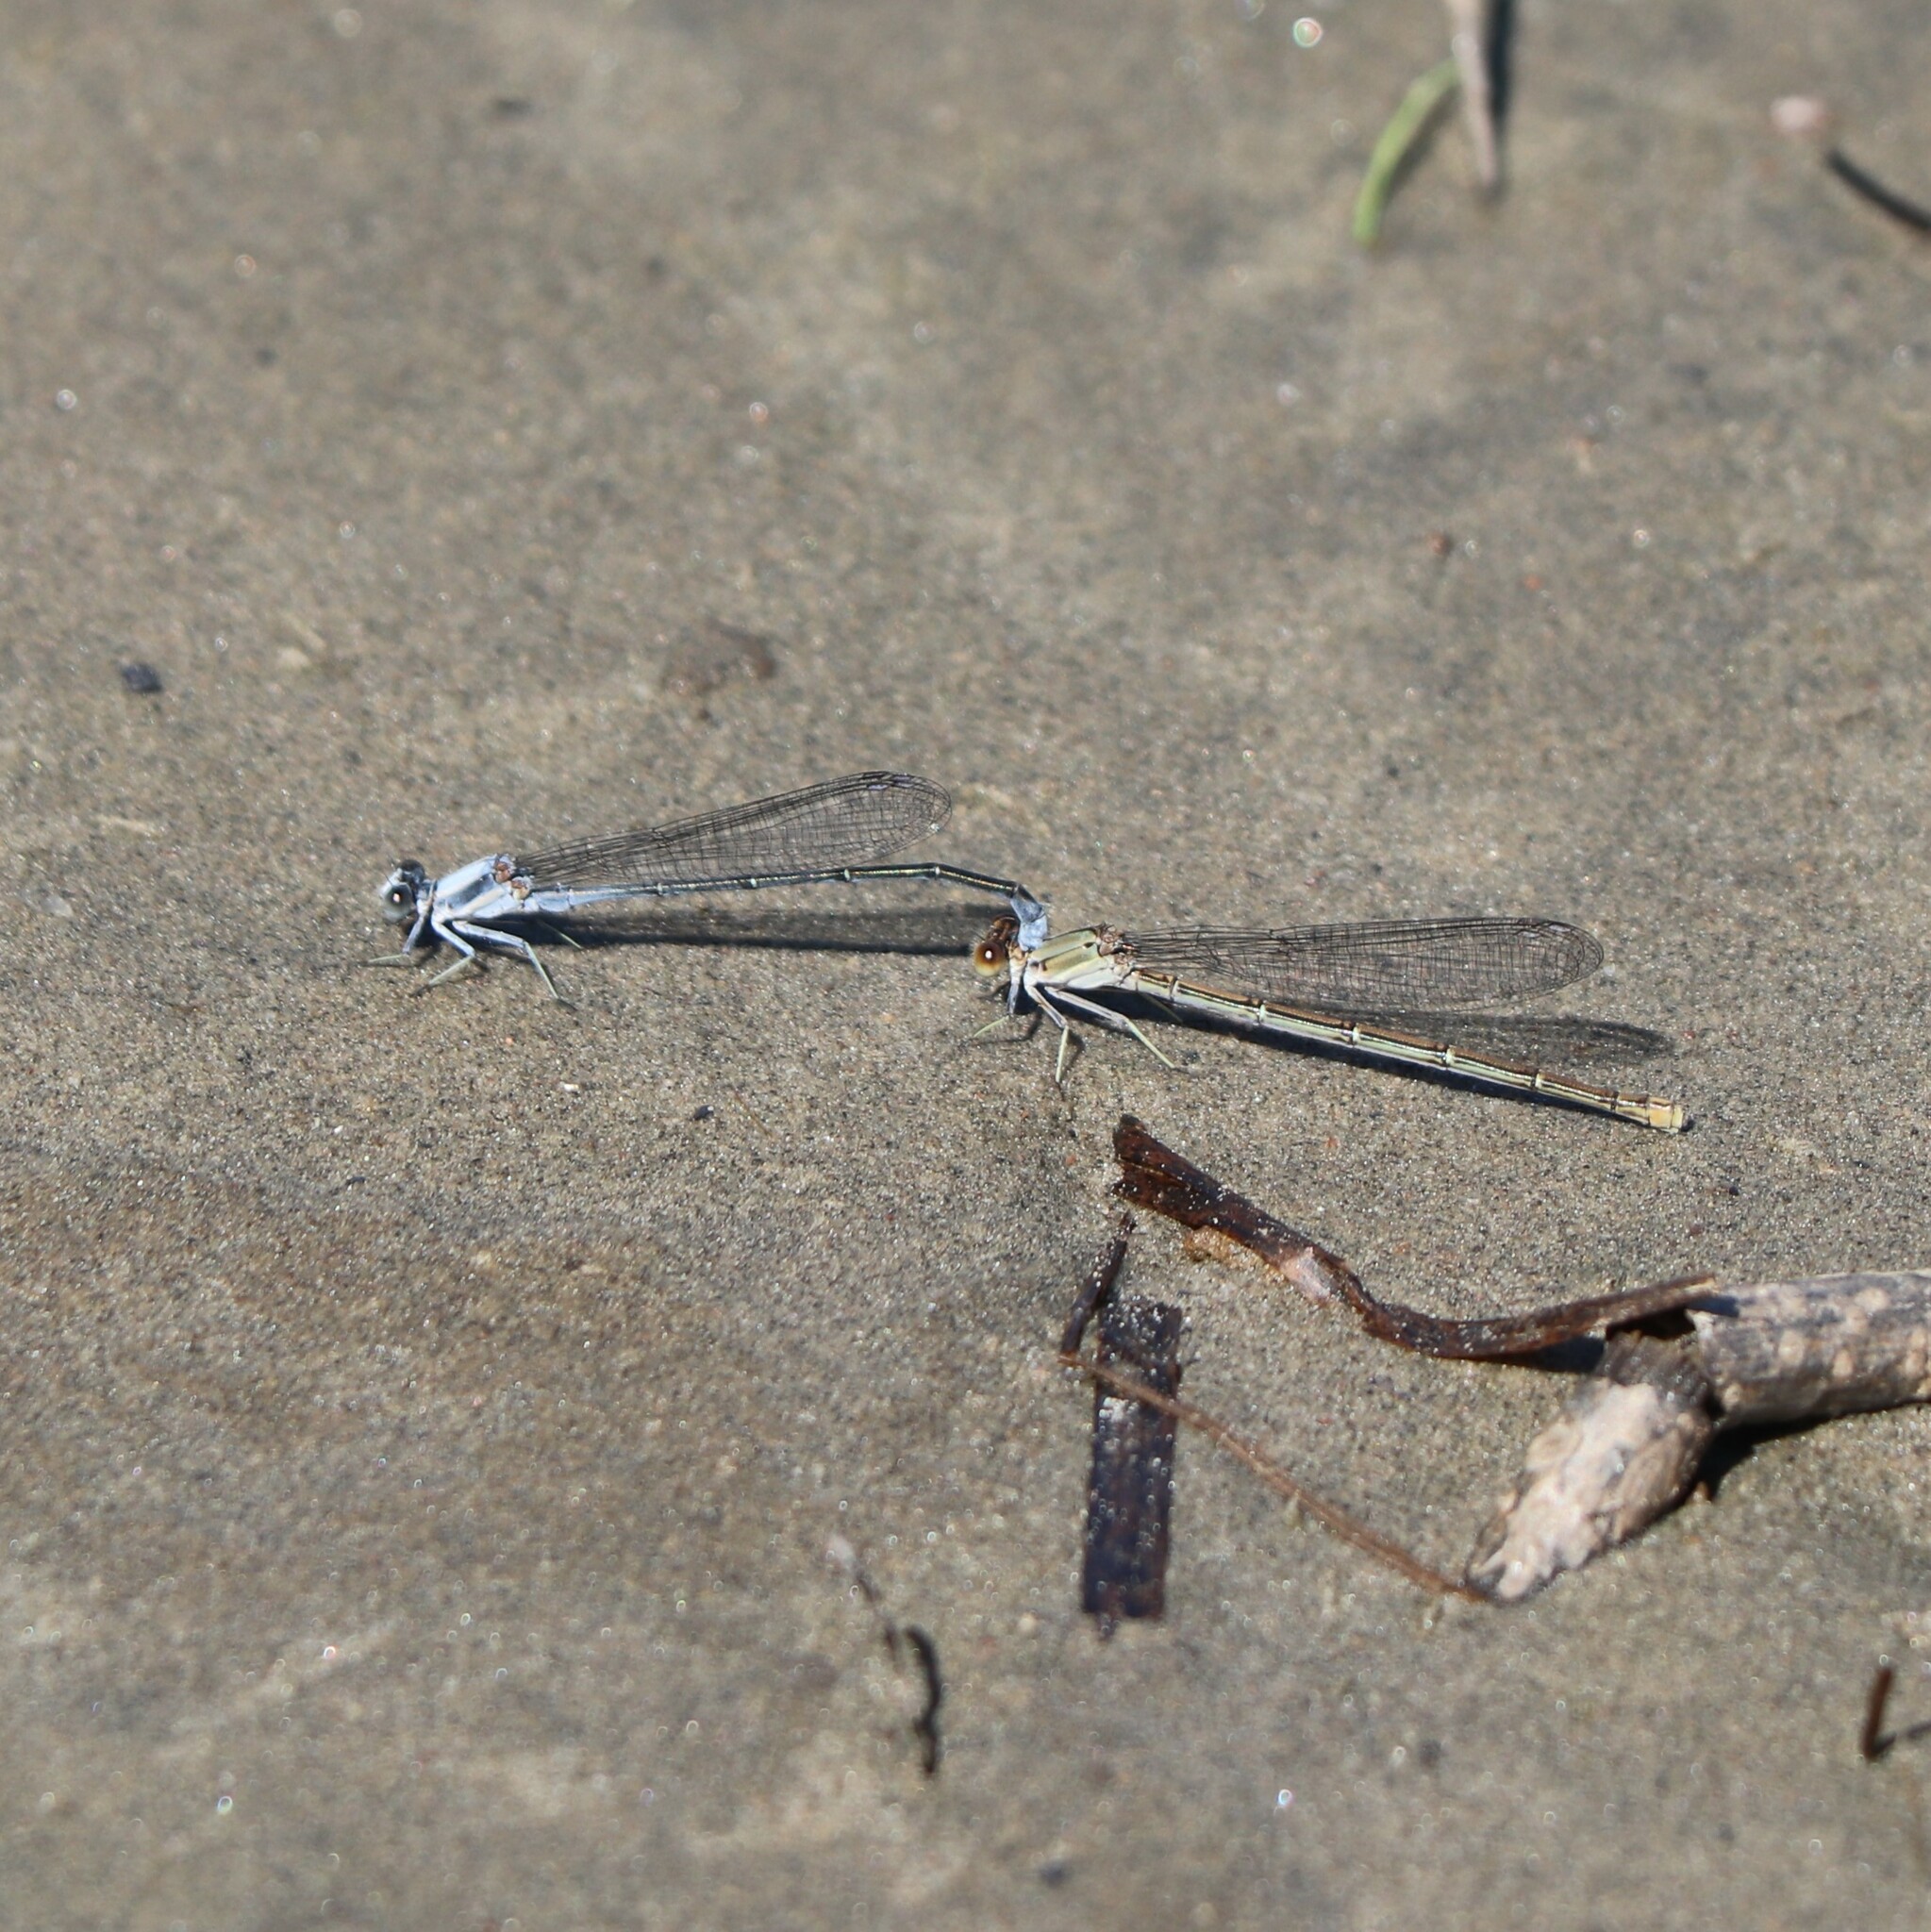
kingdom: Animalia
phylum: Arthropoda
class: Insecta
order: Odonata
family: Coenagrionidae
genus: Argia
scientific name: Argia moesta
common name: Powdered dancer
